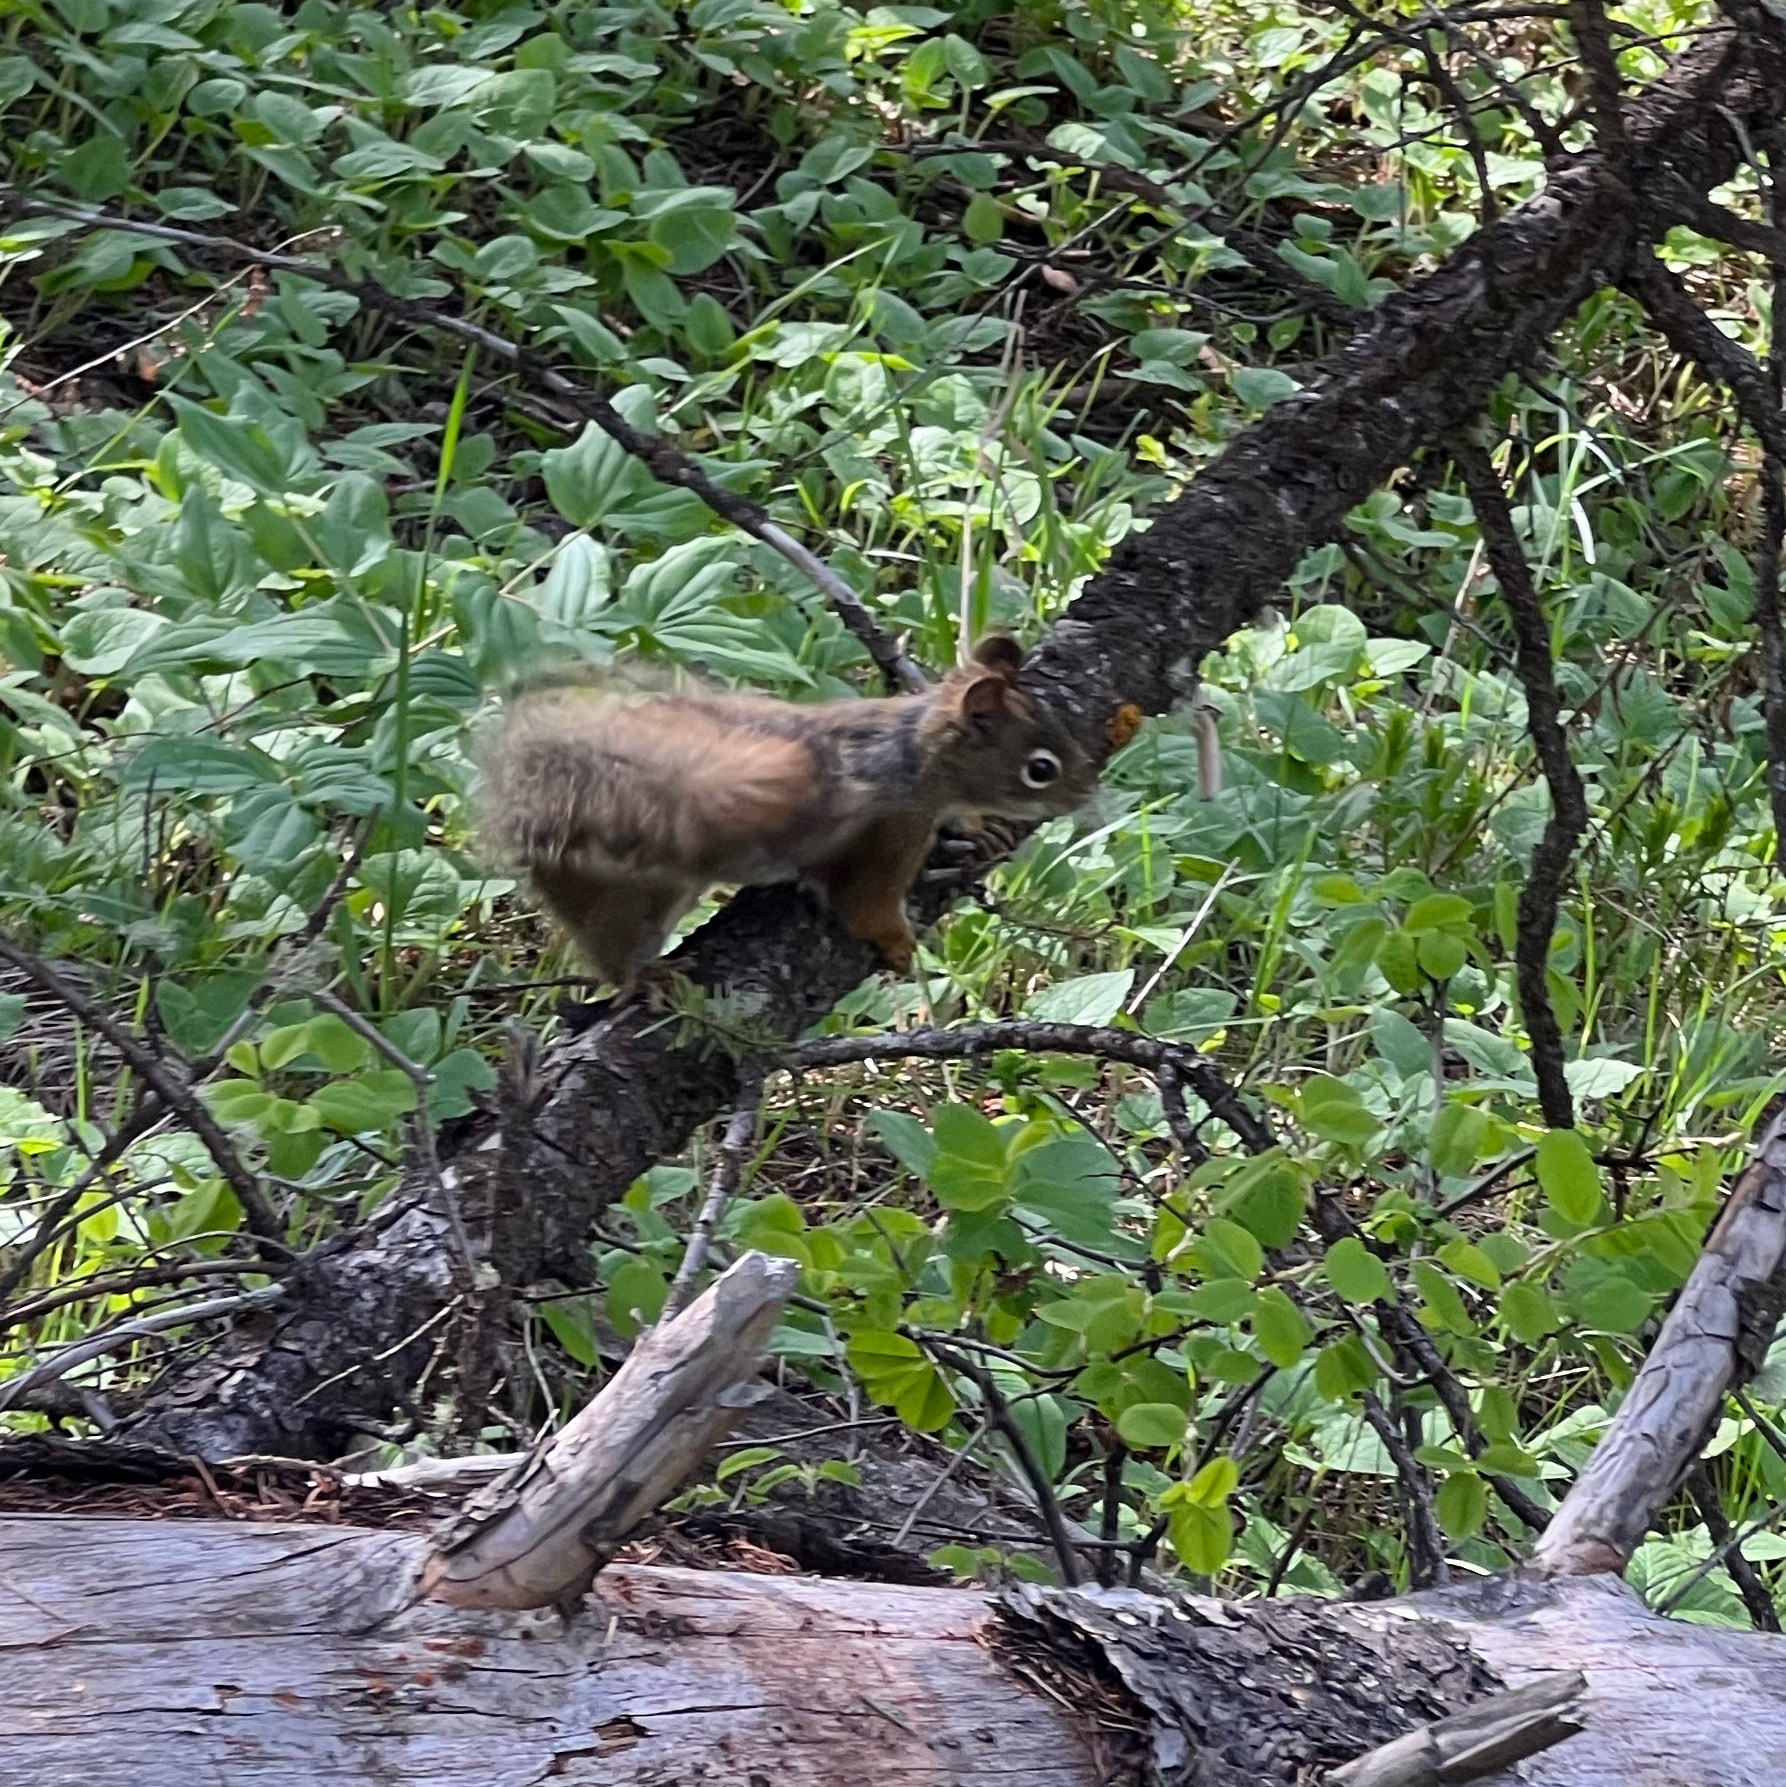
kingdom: Animalia
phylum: Chordata
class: Mammalia
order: Rodentia
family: Sciuridae
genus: Tamiasciurus
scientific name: Tamiasciurus hudsonicus
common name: Red squirrel
